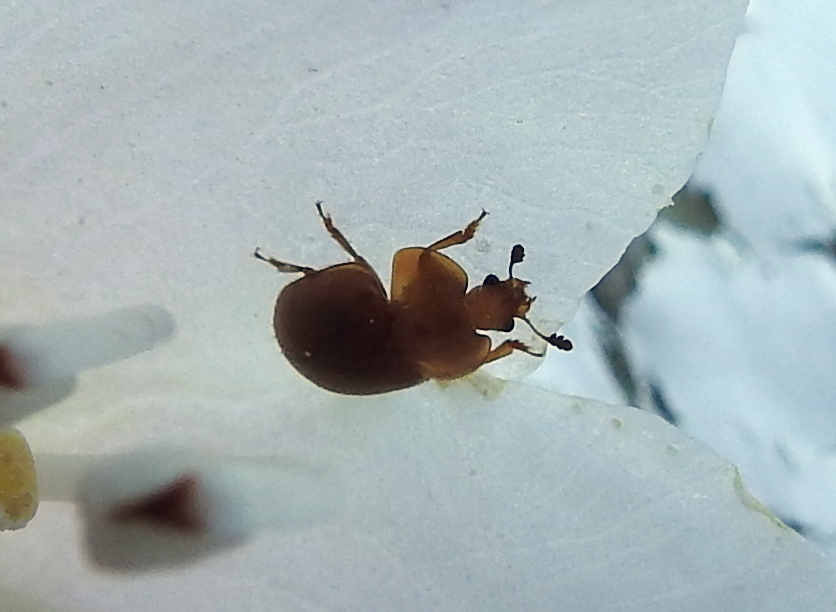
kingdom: Animalia
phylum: Arthropoda
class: Insecta
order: Coleoptera
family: Nitidulidae
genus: Cychramus
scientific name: Cychramus luteus
